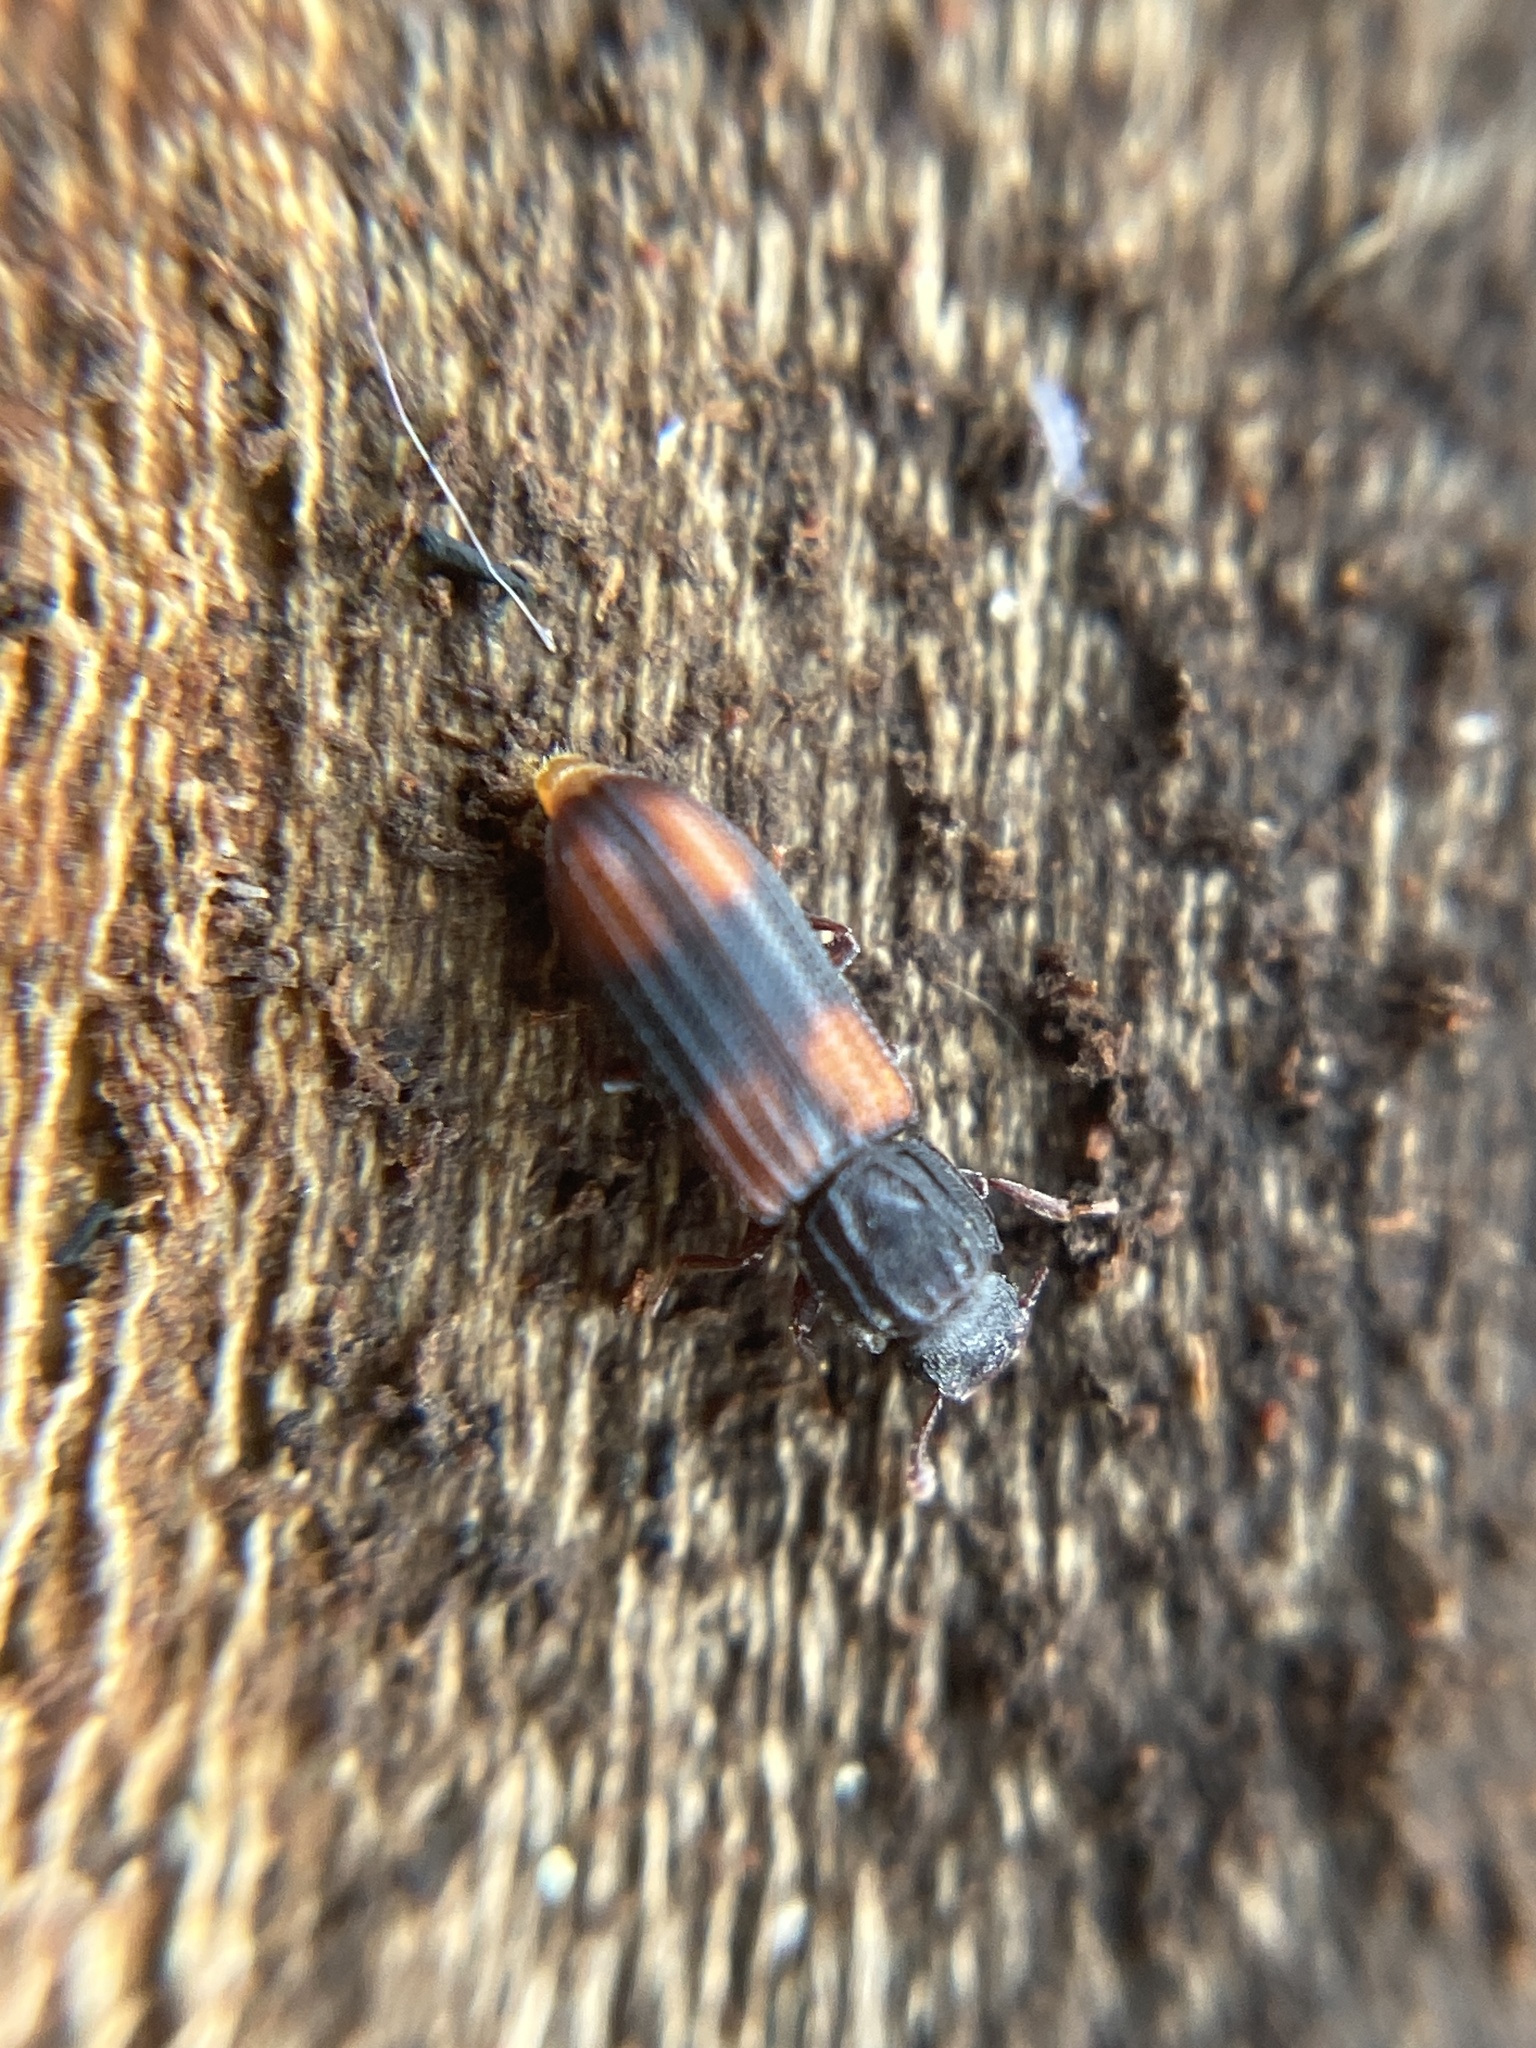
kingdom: Animalia
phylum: Arthropoda
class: Insecta
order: Coleoptera
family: Zopheridae
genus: Bitoma
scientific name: Bitoma crenata
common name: Bark beetle
